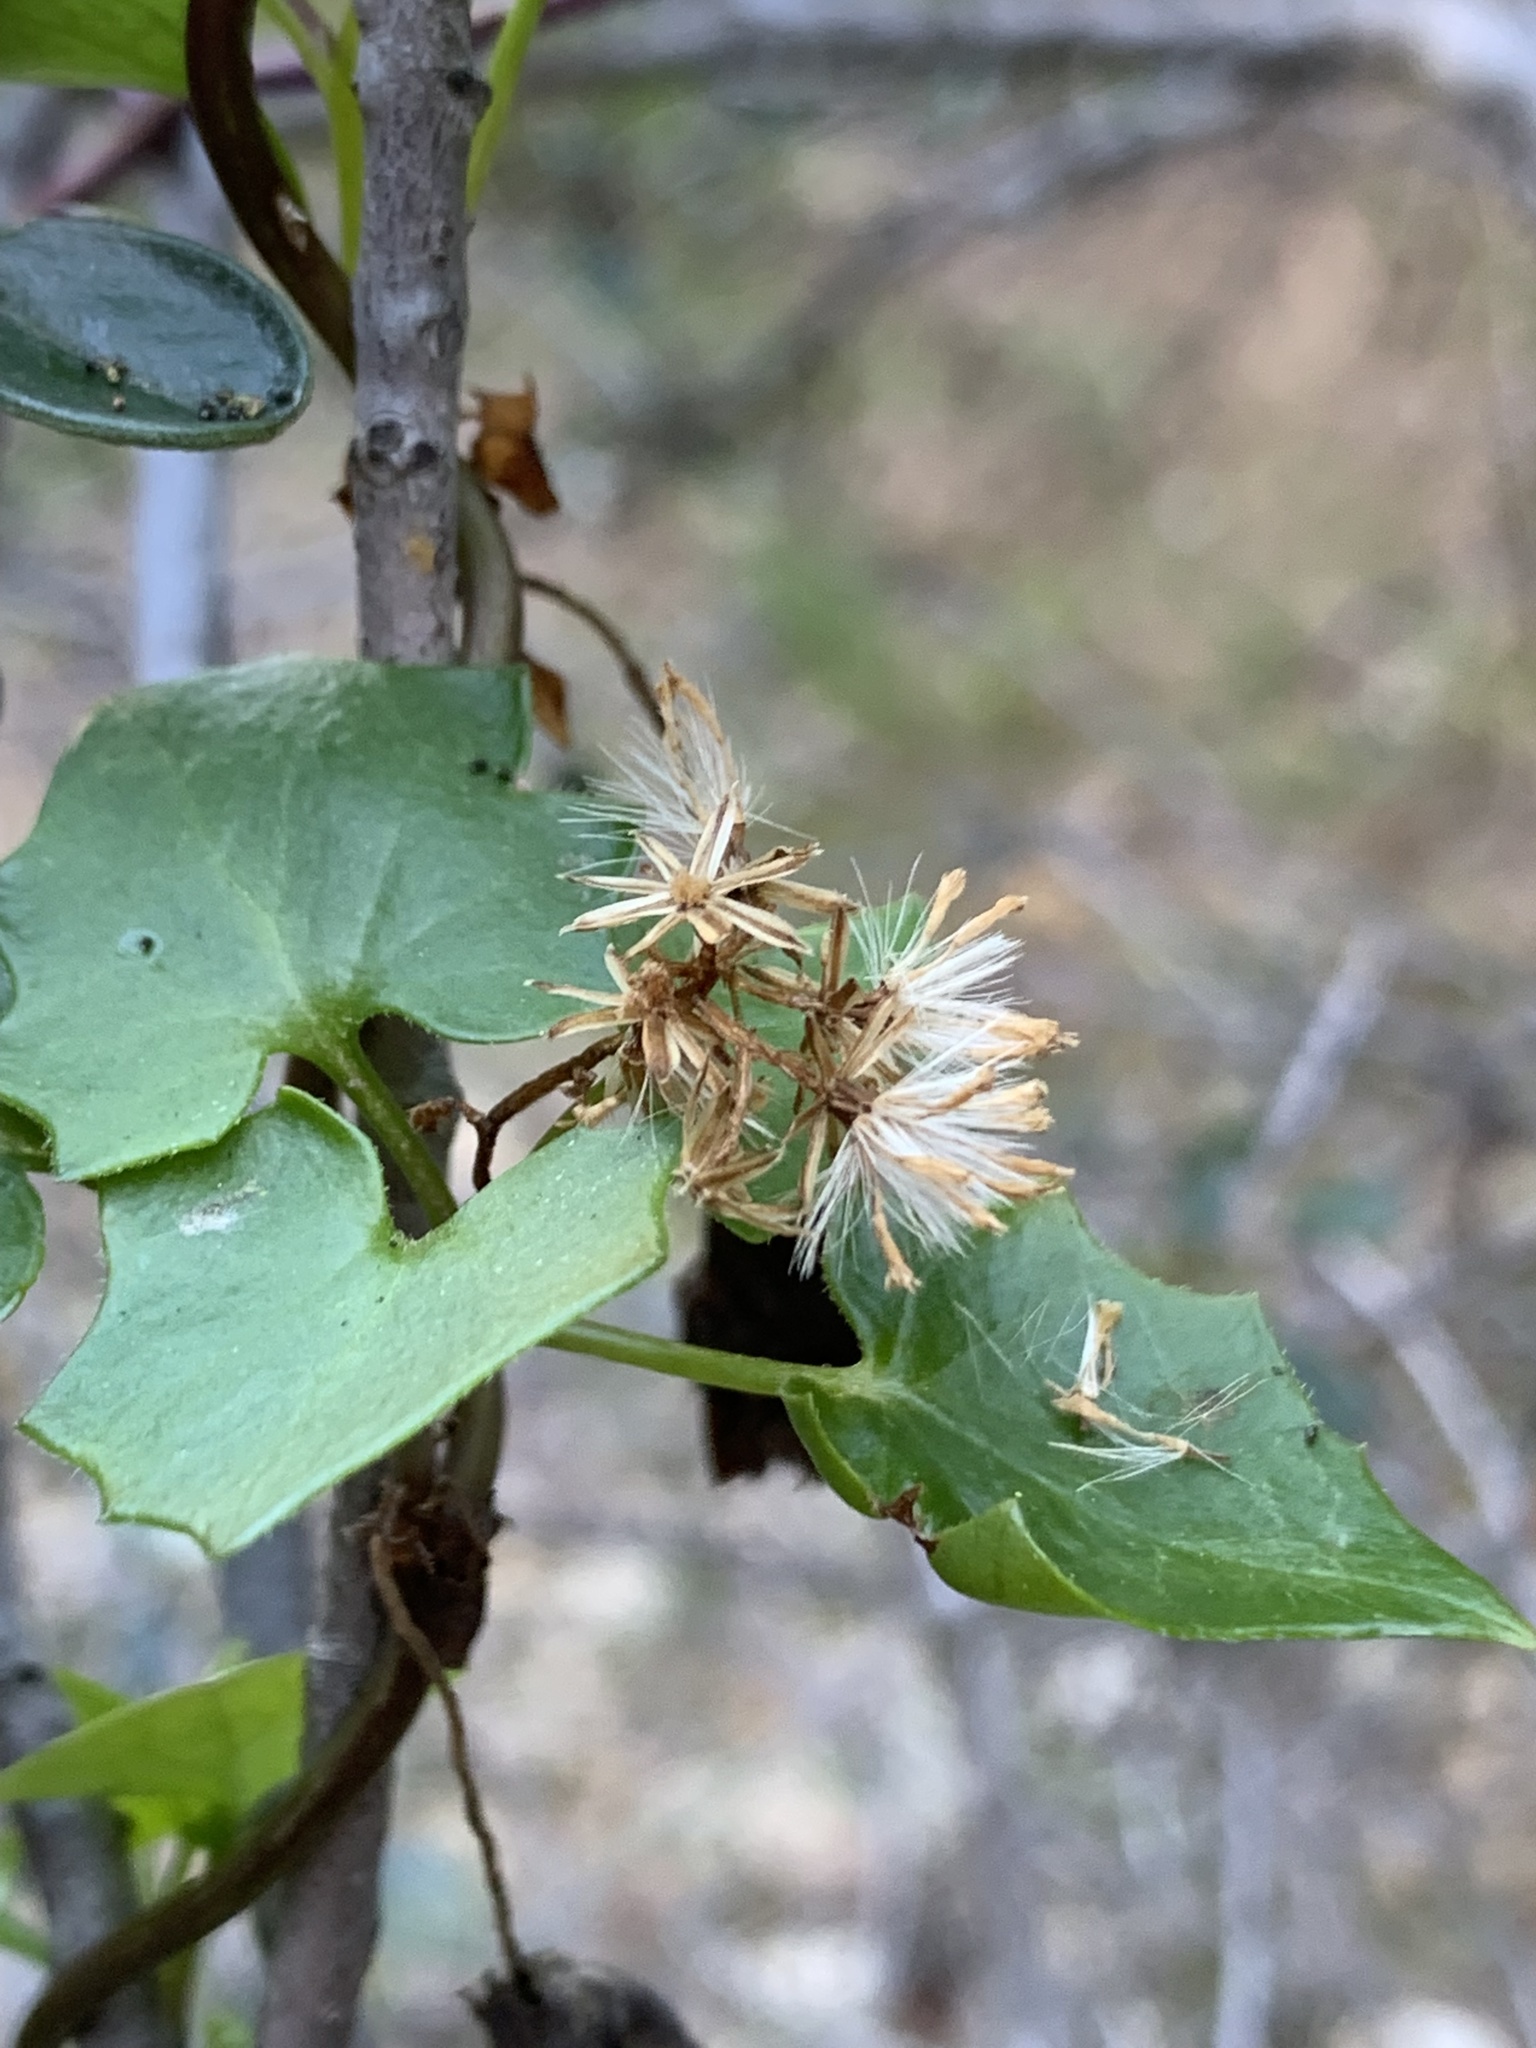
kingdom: Plantae
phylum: Tracheophyta
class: Magnoliopsida
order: Asterales
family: Asteraceae
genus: Delairea
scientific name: Delairea odorata
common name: Cape-ivy
